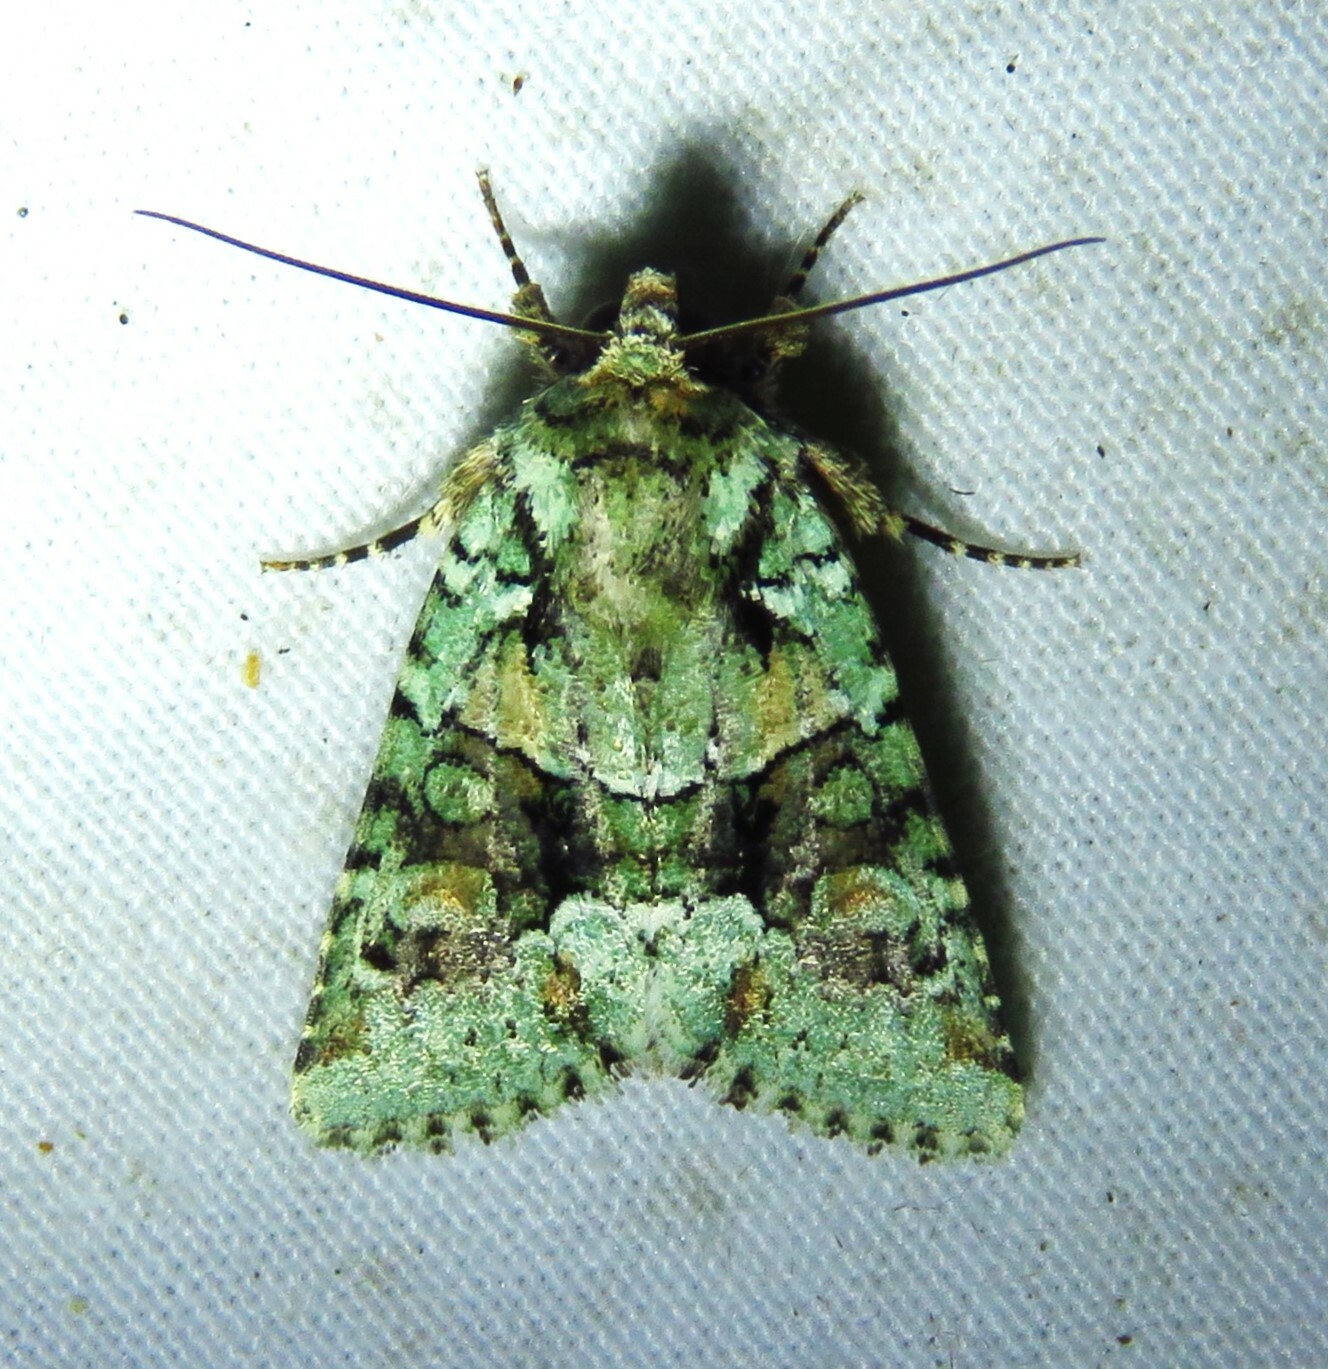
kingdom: Animalia
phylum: Arthropoda
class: Insecta
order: Lepidoptera
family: Noctuidae
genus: Lacinipolia
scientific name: Lacinipolia explicata
